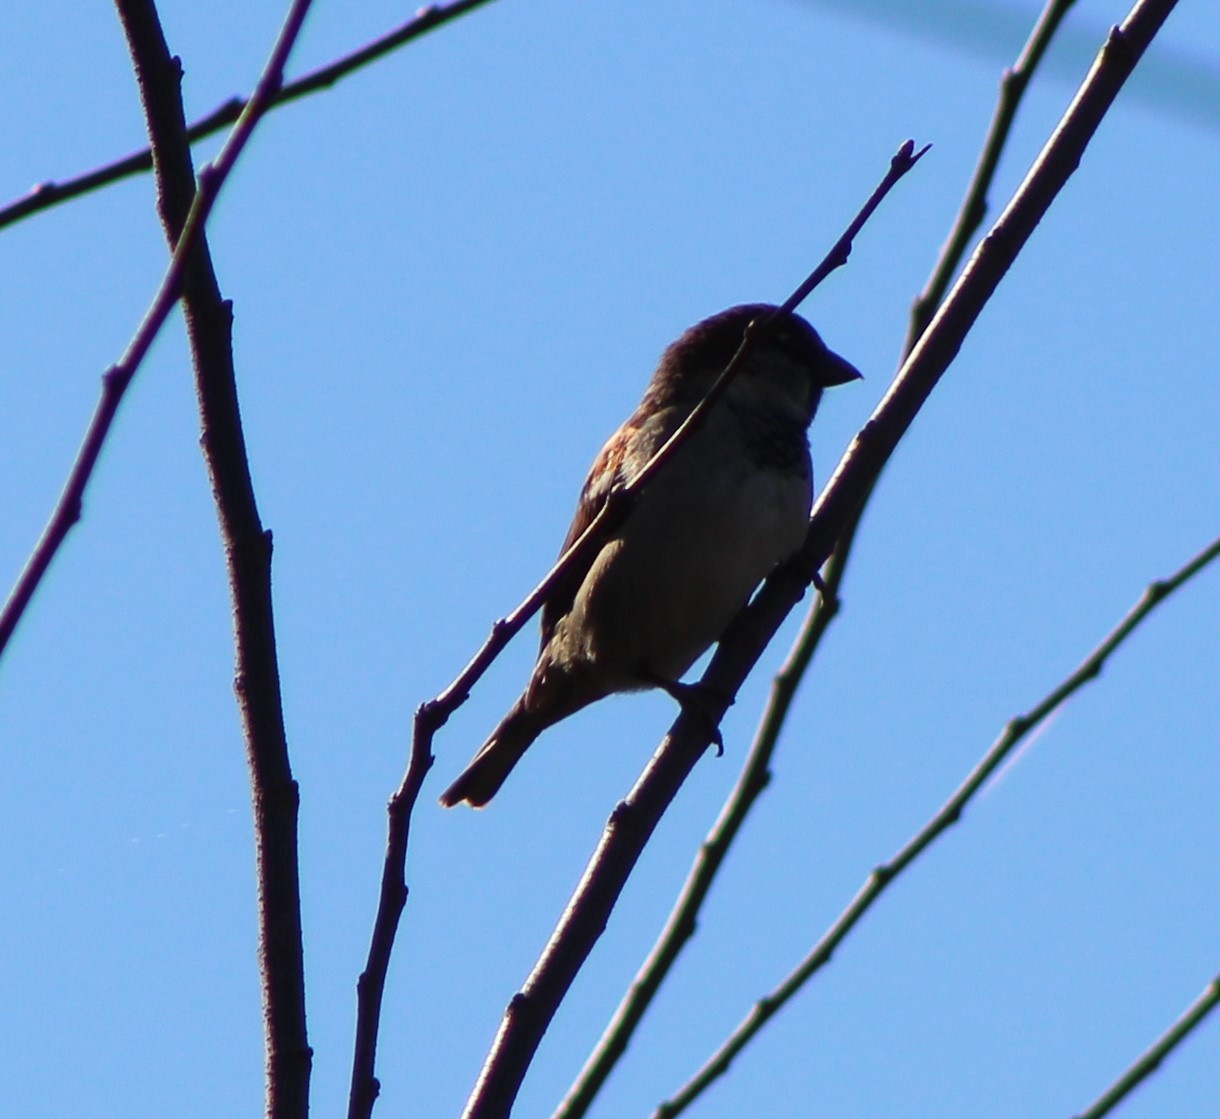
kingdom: Animalia
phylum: Chordata
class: Aves
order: Passeriformes
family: Passeridae
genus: Passer
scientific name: Passer domesticus
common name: House sparrow
